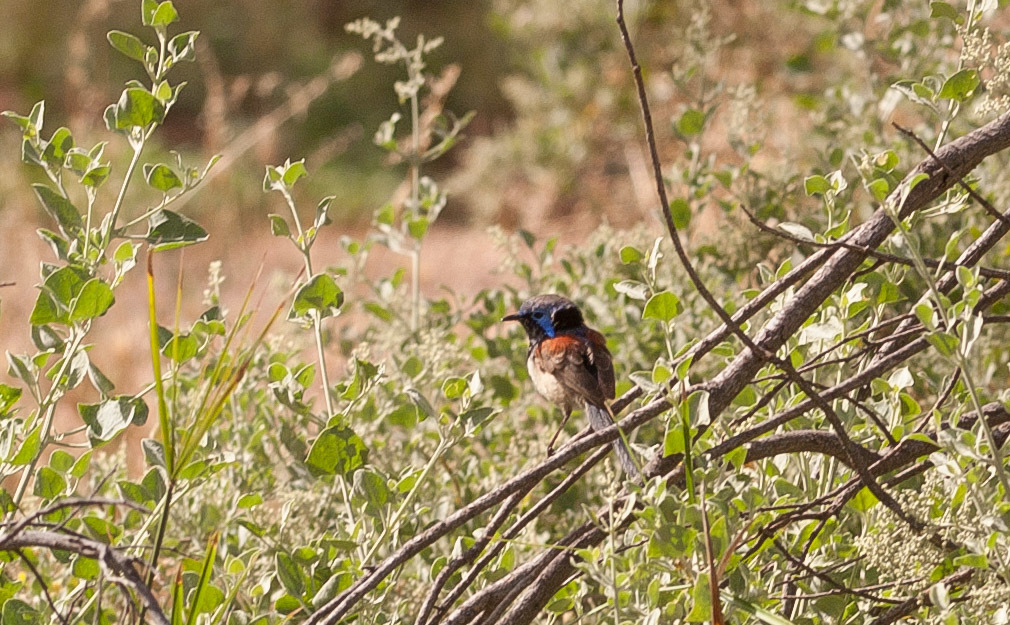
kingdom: Animalia
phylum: Chordata
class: Aves
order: Passeriformes
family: Maluridae
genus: Malurus
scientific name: Malurus assimilis
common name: Purple-backed fairywren
